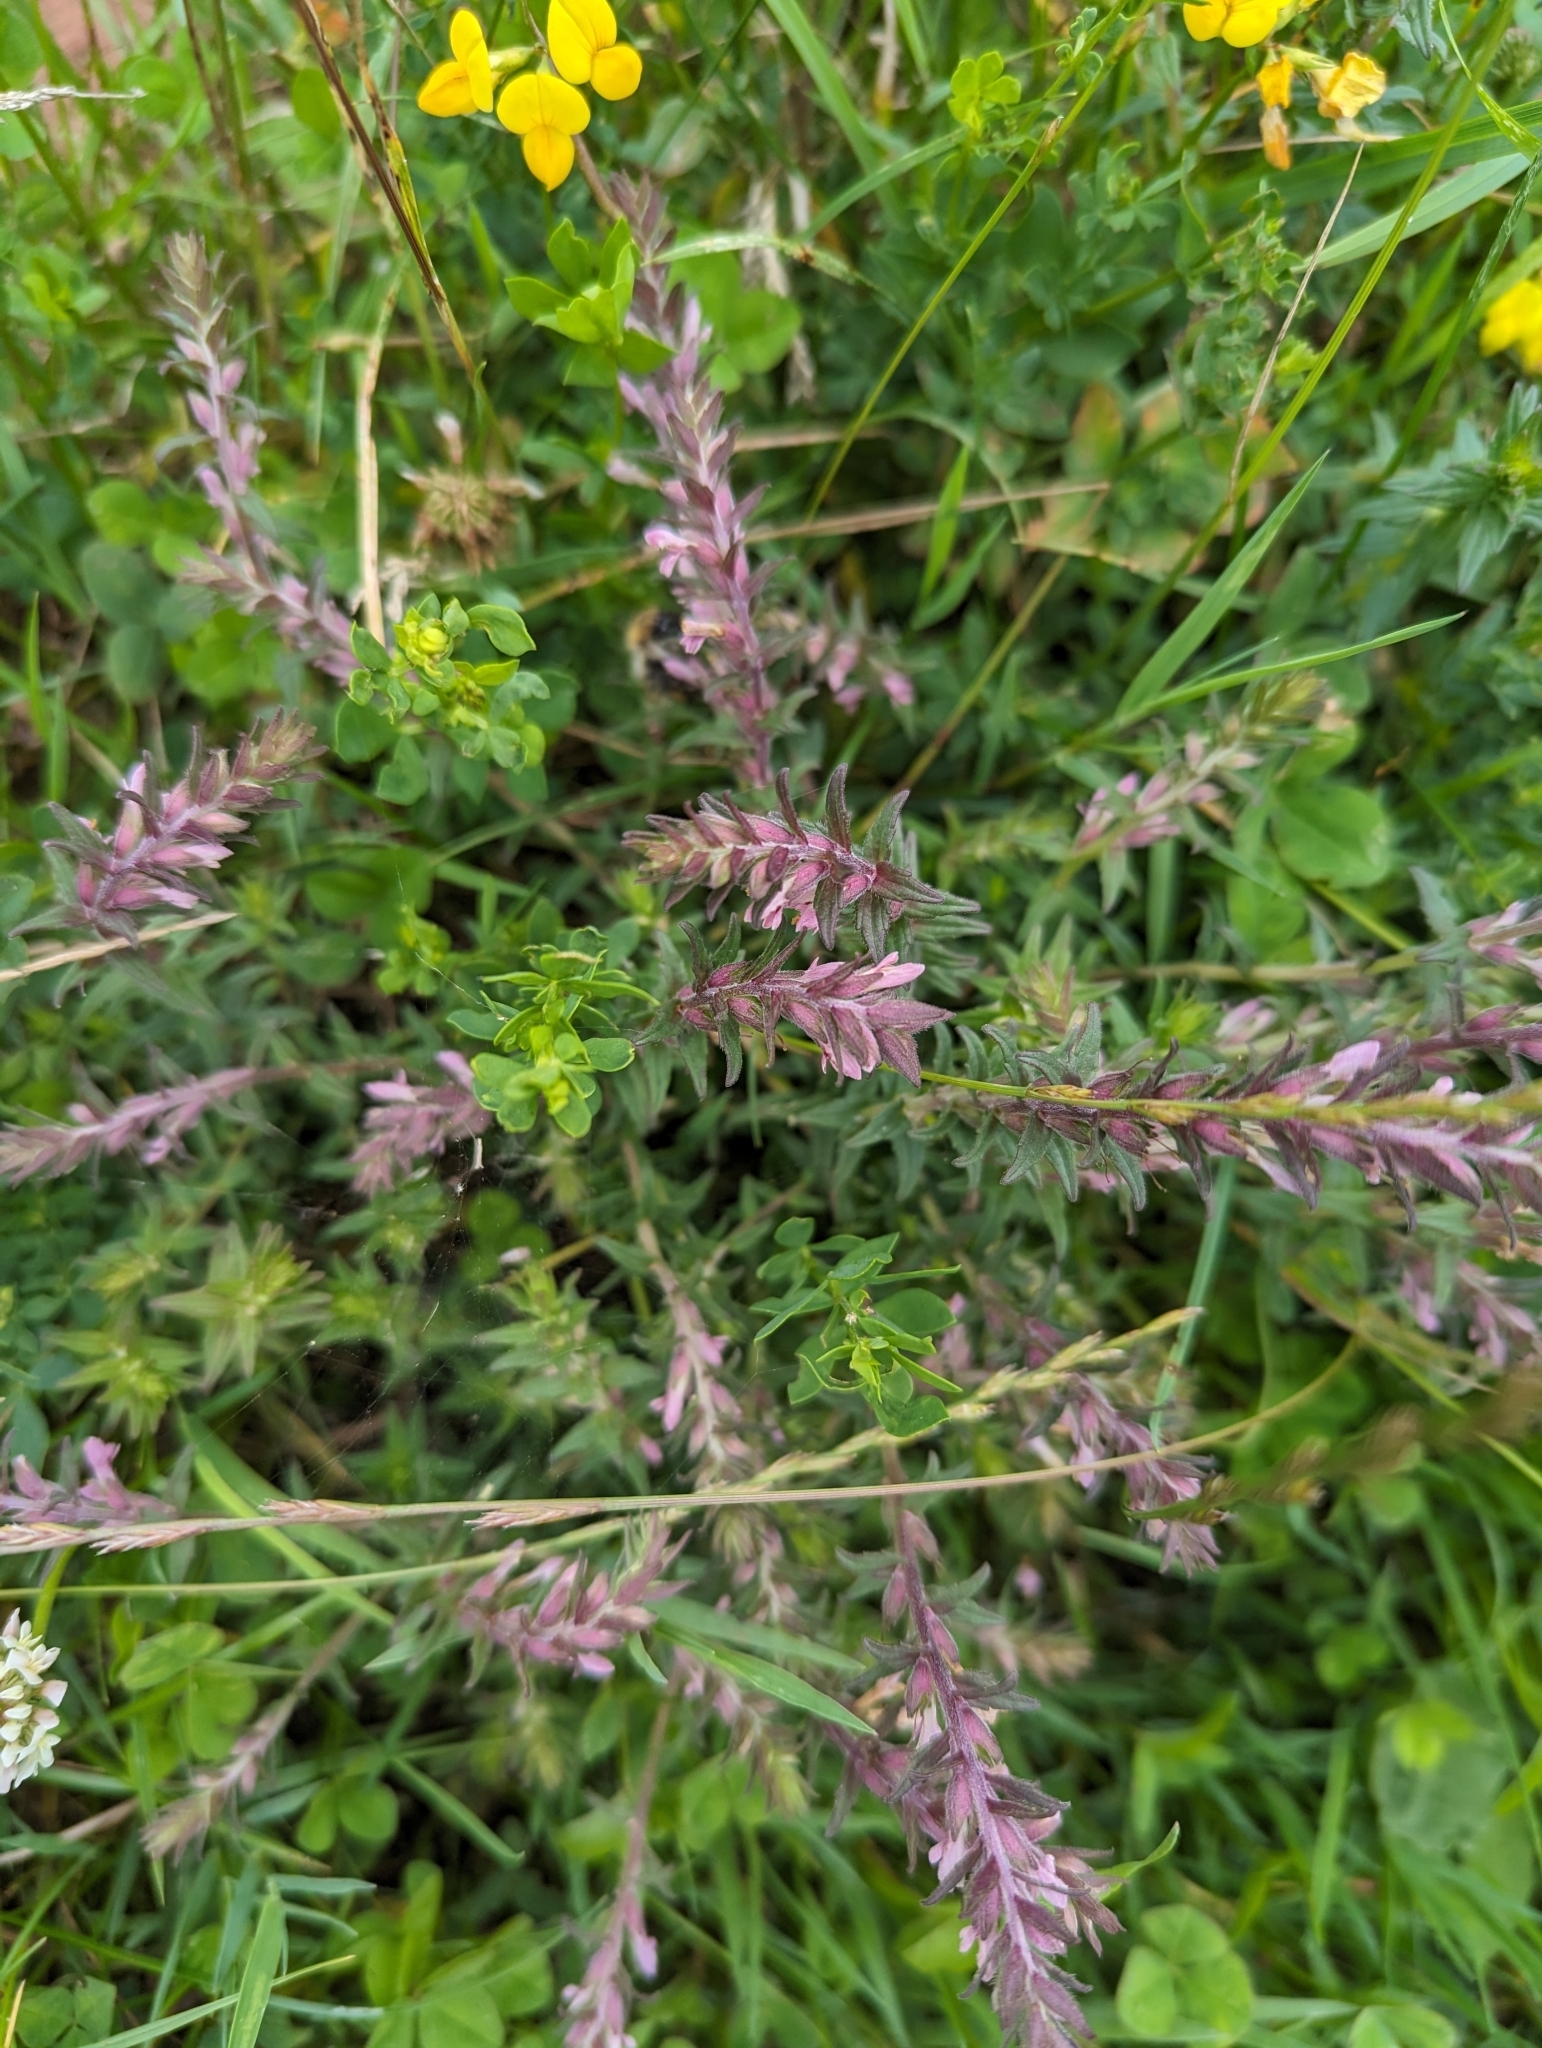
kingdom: Plantae
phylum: Tracheophyta
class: Magnoliopsida
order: Lamiales
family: Orobanchaceae
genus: Odontites
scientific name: Odontites vernus
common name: Red bartsia
